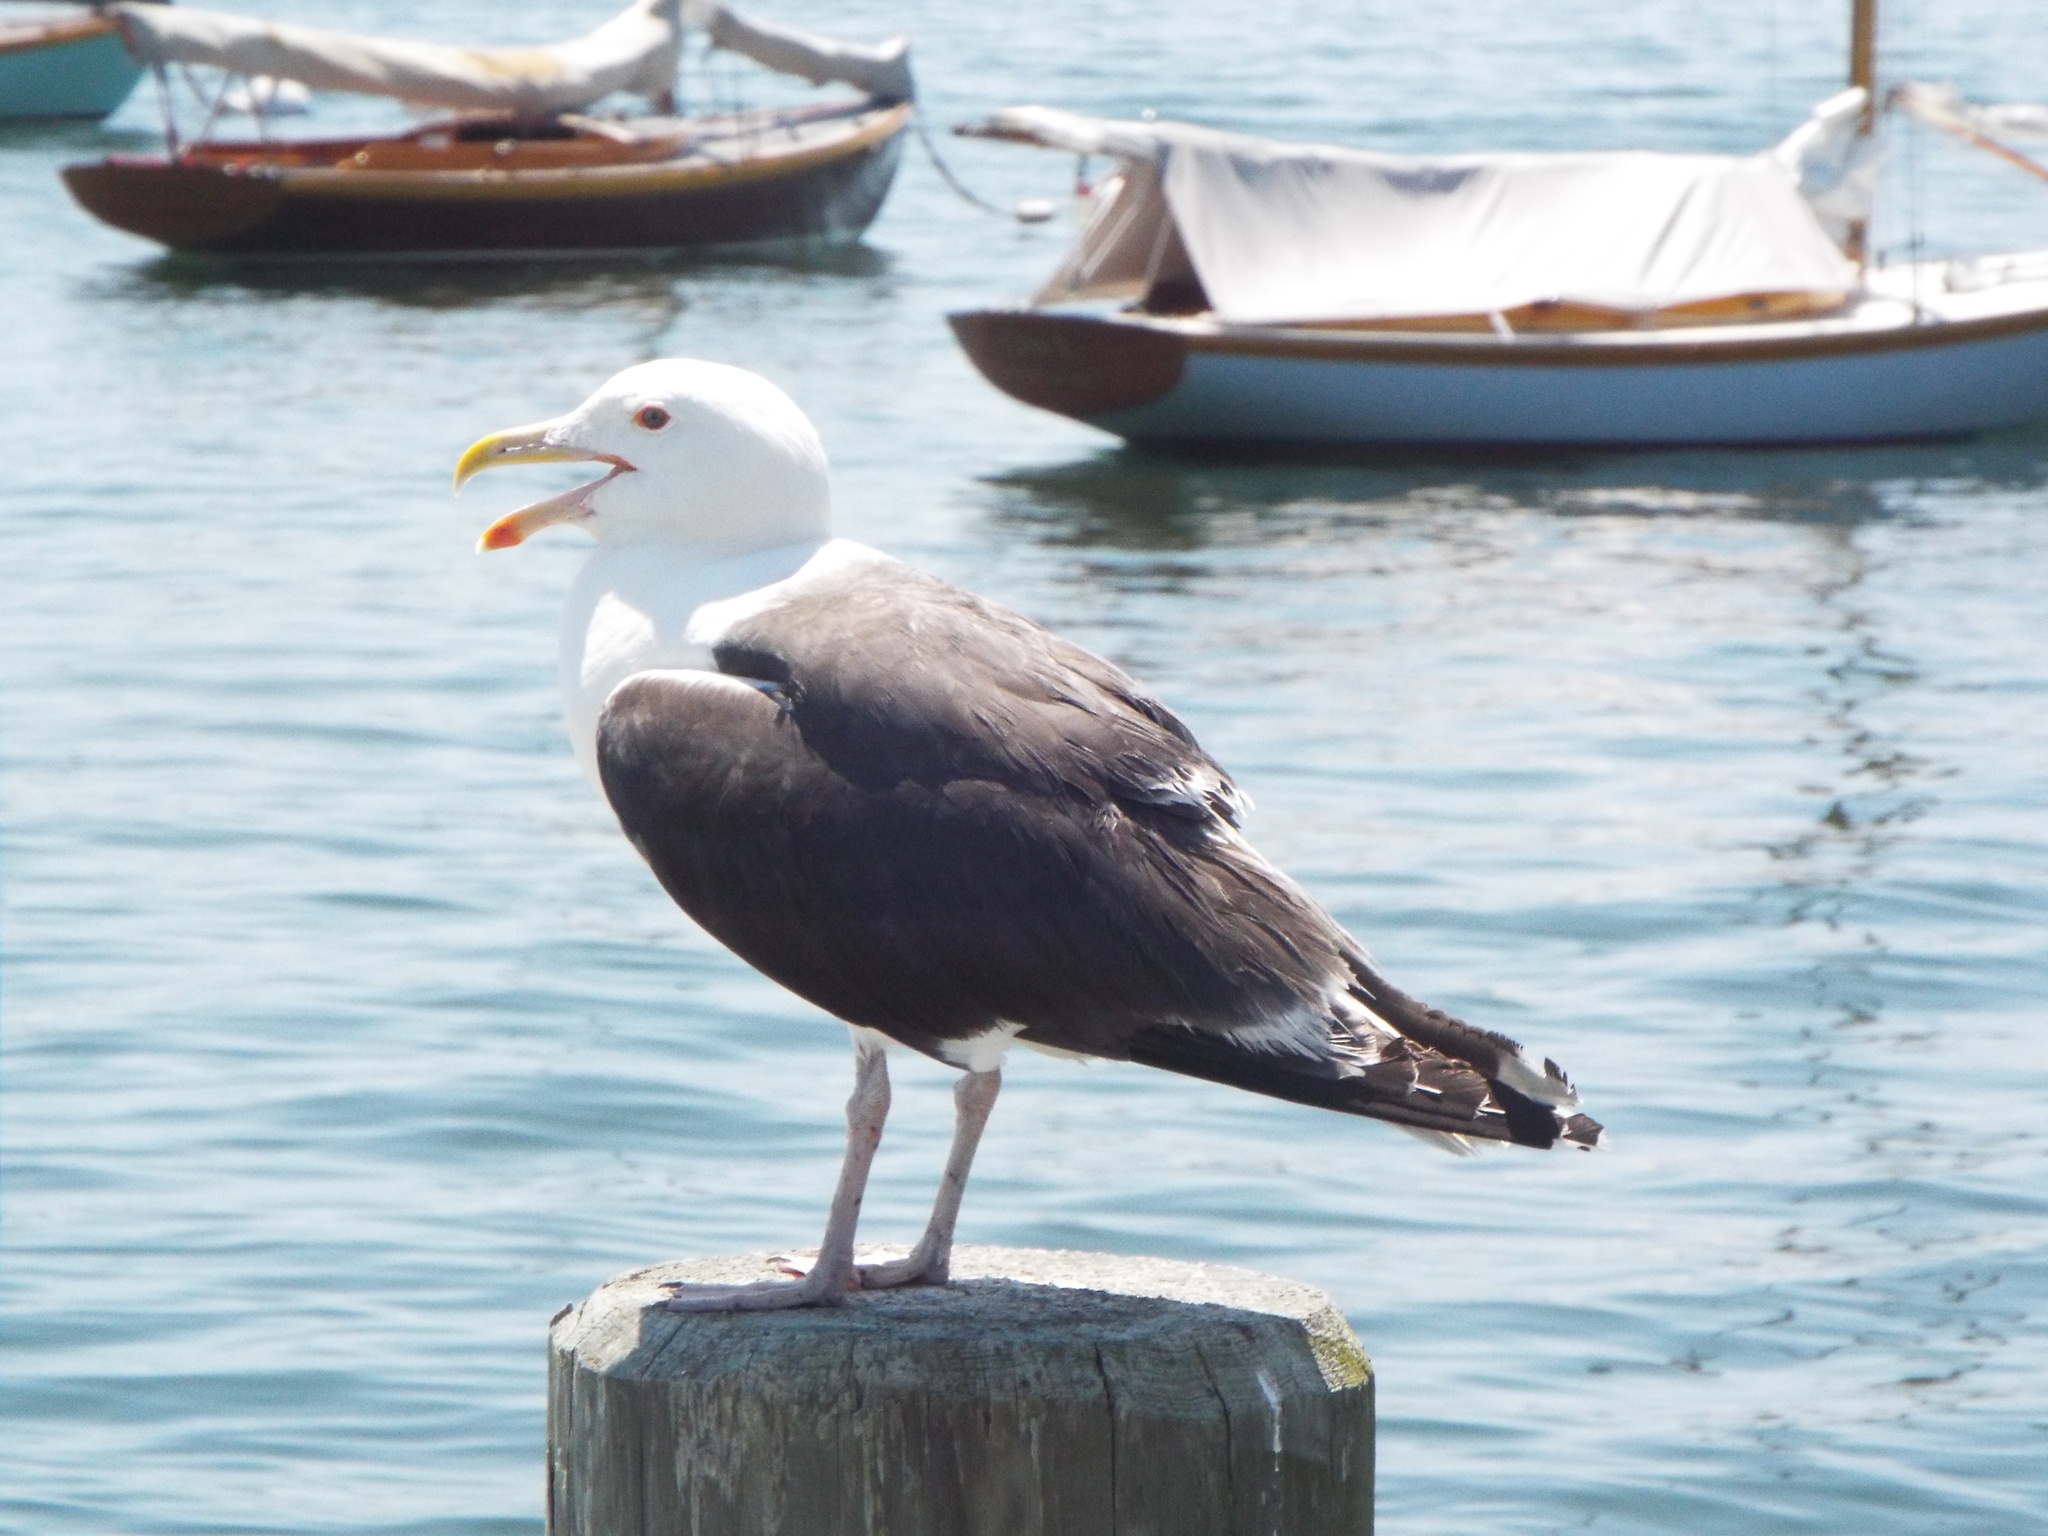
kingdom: Animalia
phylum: Chordata
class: Aves
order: Charadriiformes
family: Laridae
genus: Larus
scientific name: Larus marinus
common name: Great black-backed gull
